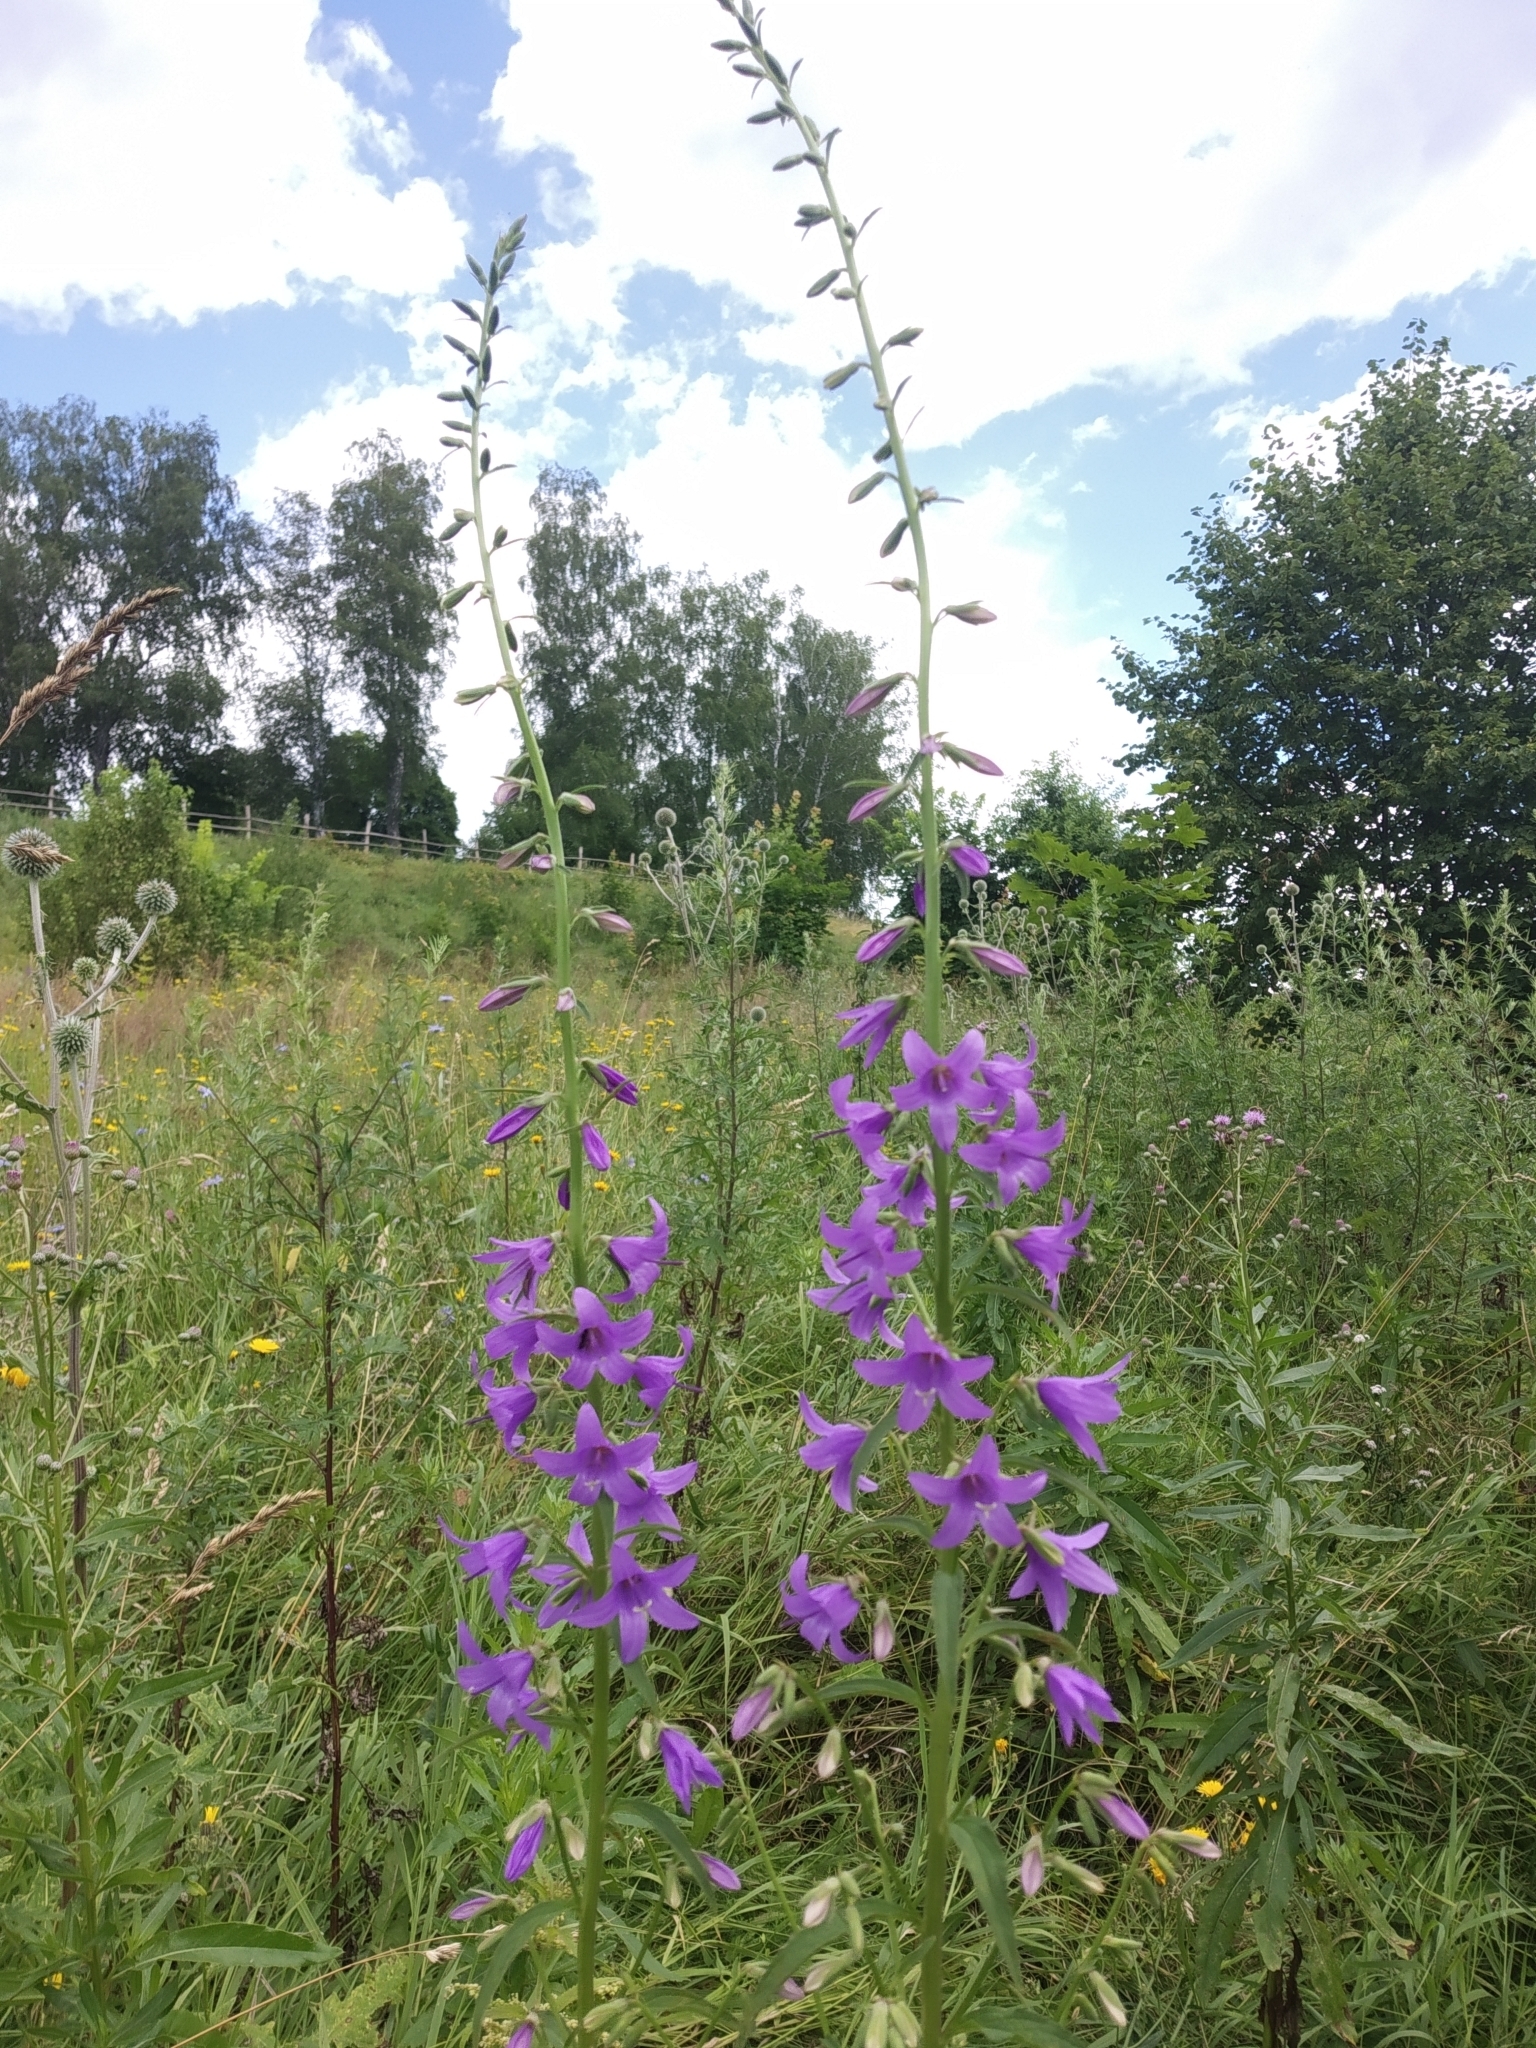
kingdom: Plantae
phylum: Tracheophyta
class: Magnoliopsida
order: Asterales
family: Campanulaceae
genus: Campanula
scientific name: Campanula rapunculoides
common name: Creeping bellflower
